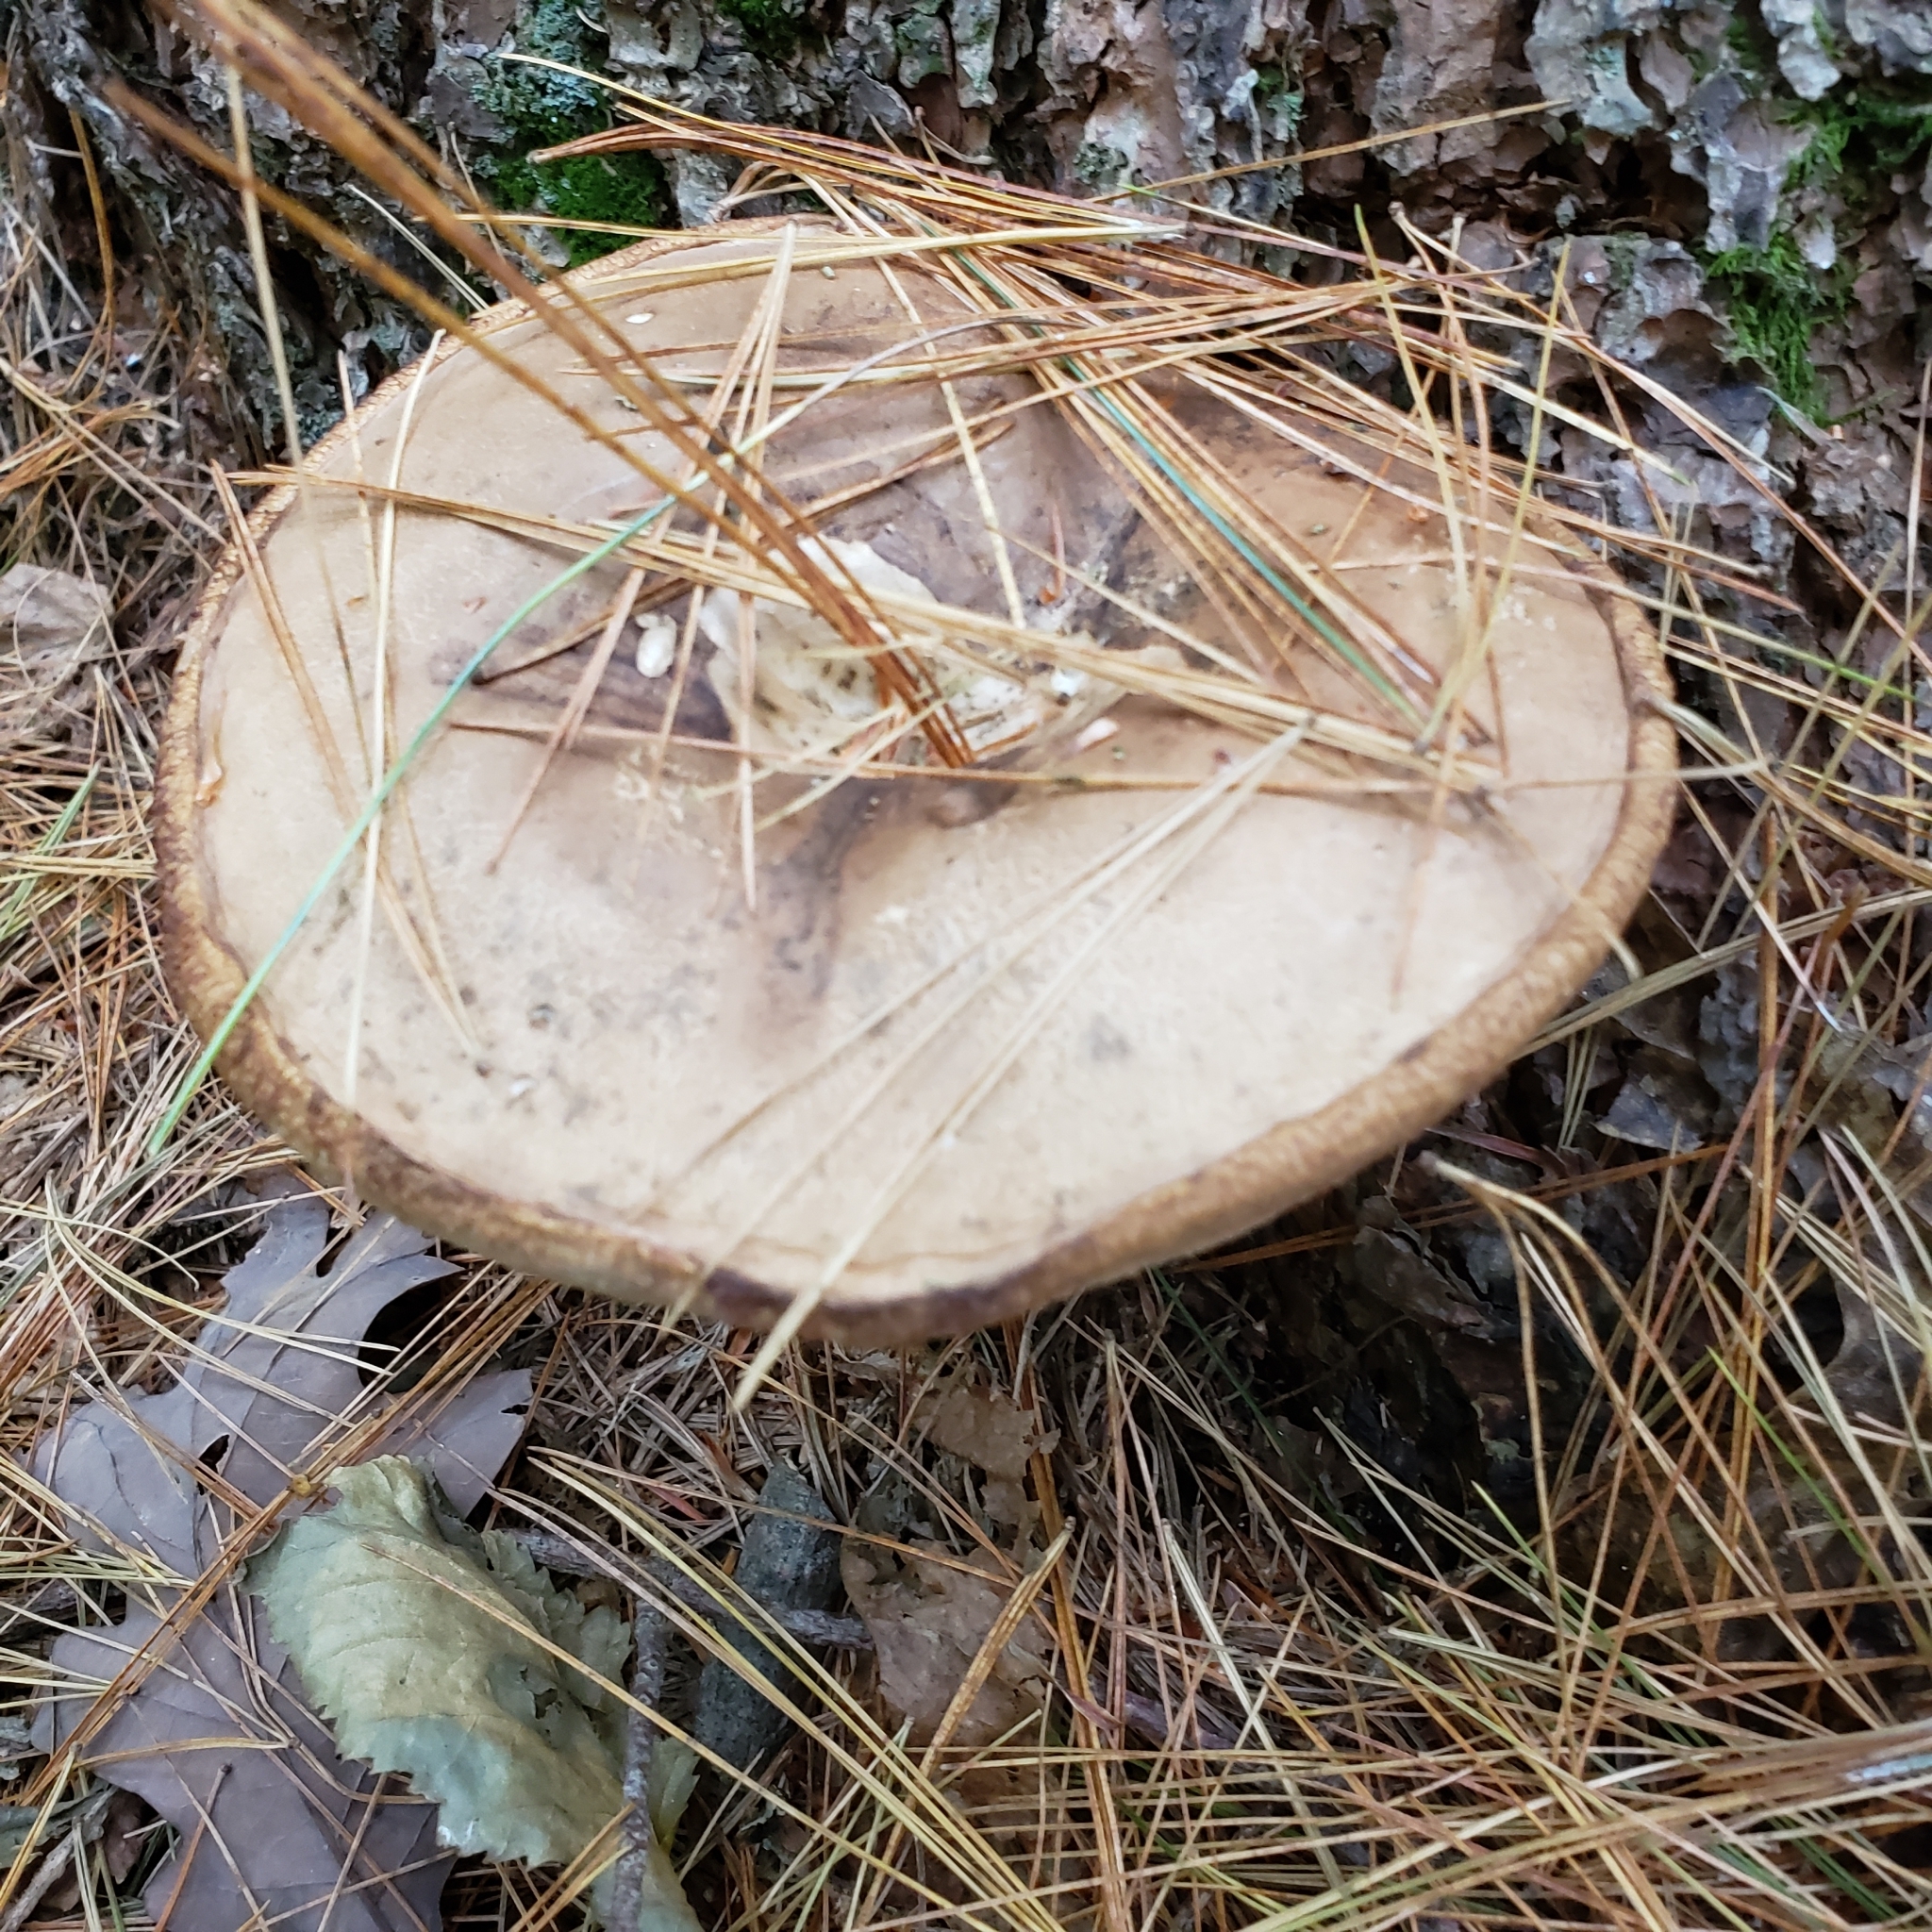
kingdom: Fungi
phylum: Basidiomycota
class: Agaricomycetes
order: Boletales
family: Boletaceae
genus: Tylopilus
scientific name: Tylopilus felleus
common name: Bitter bolete
